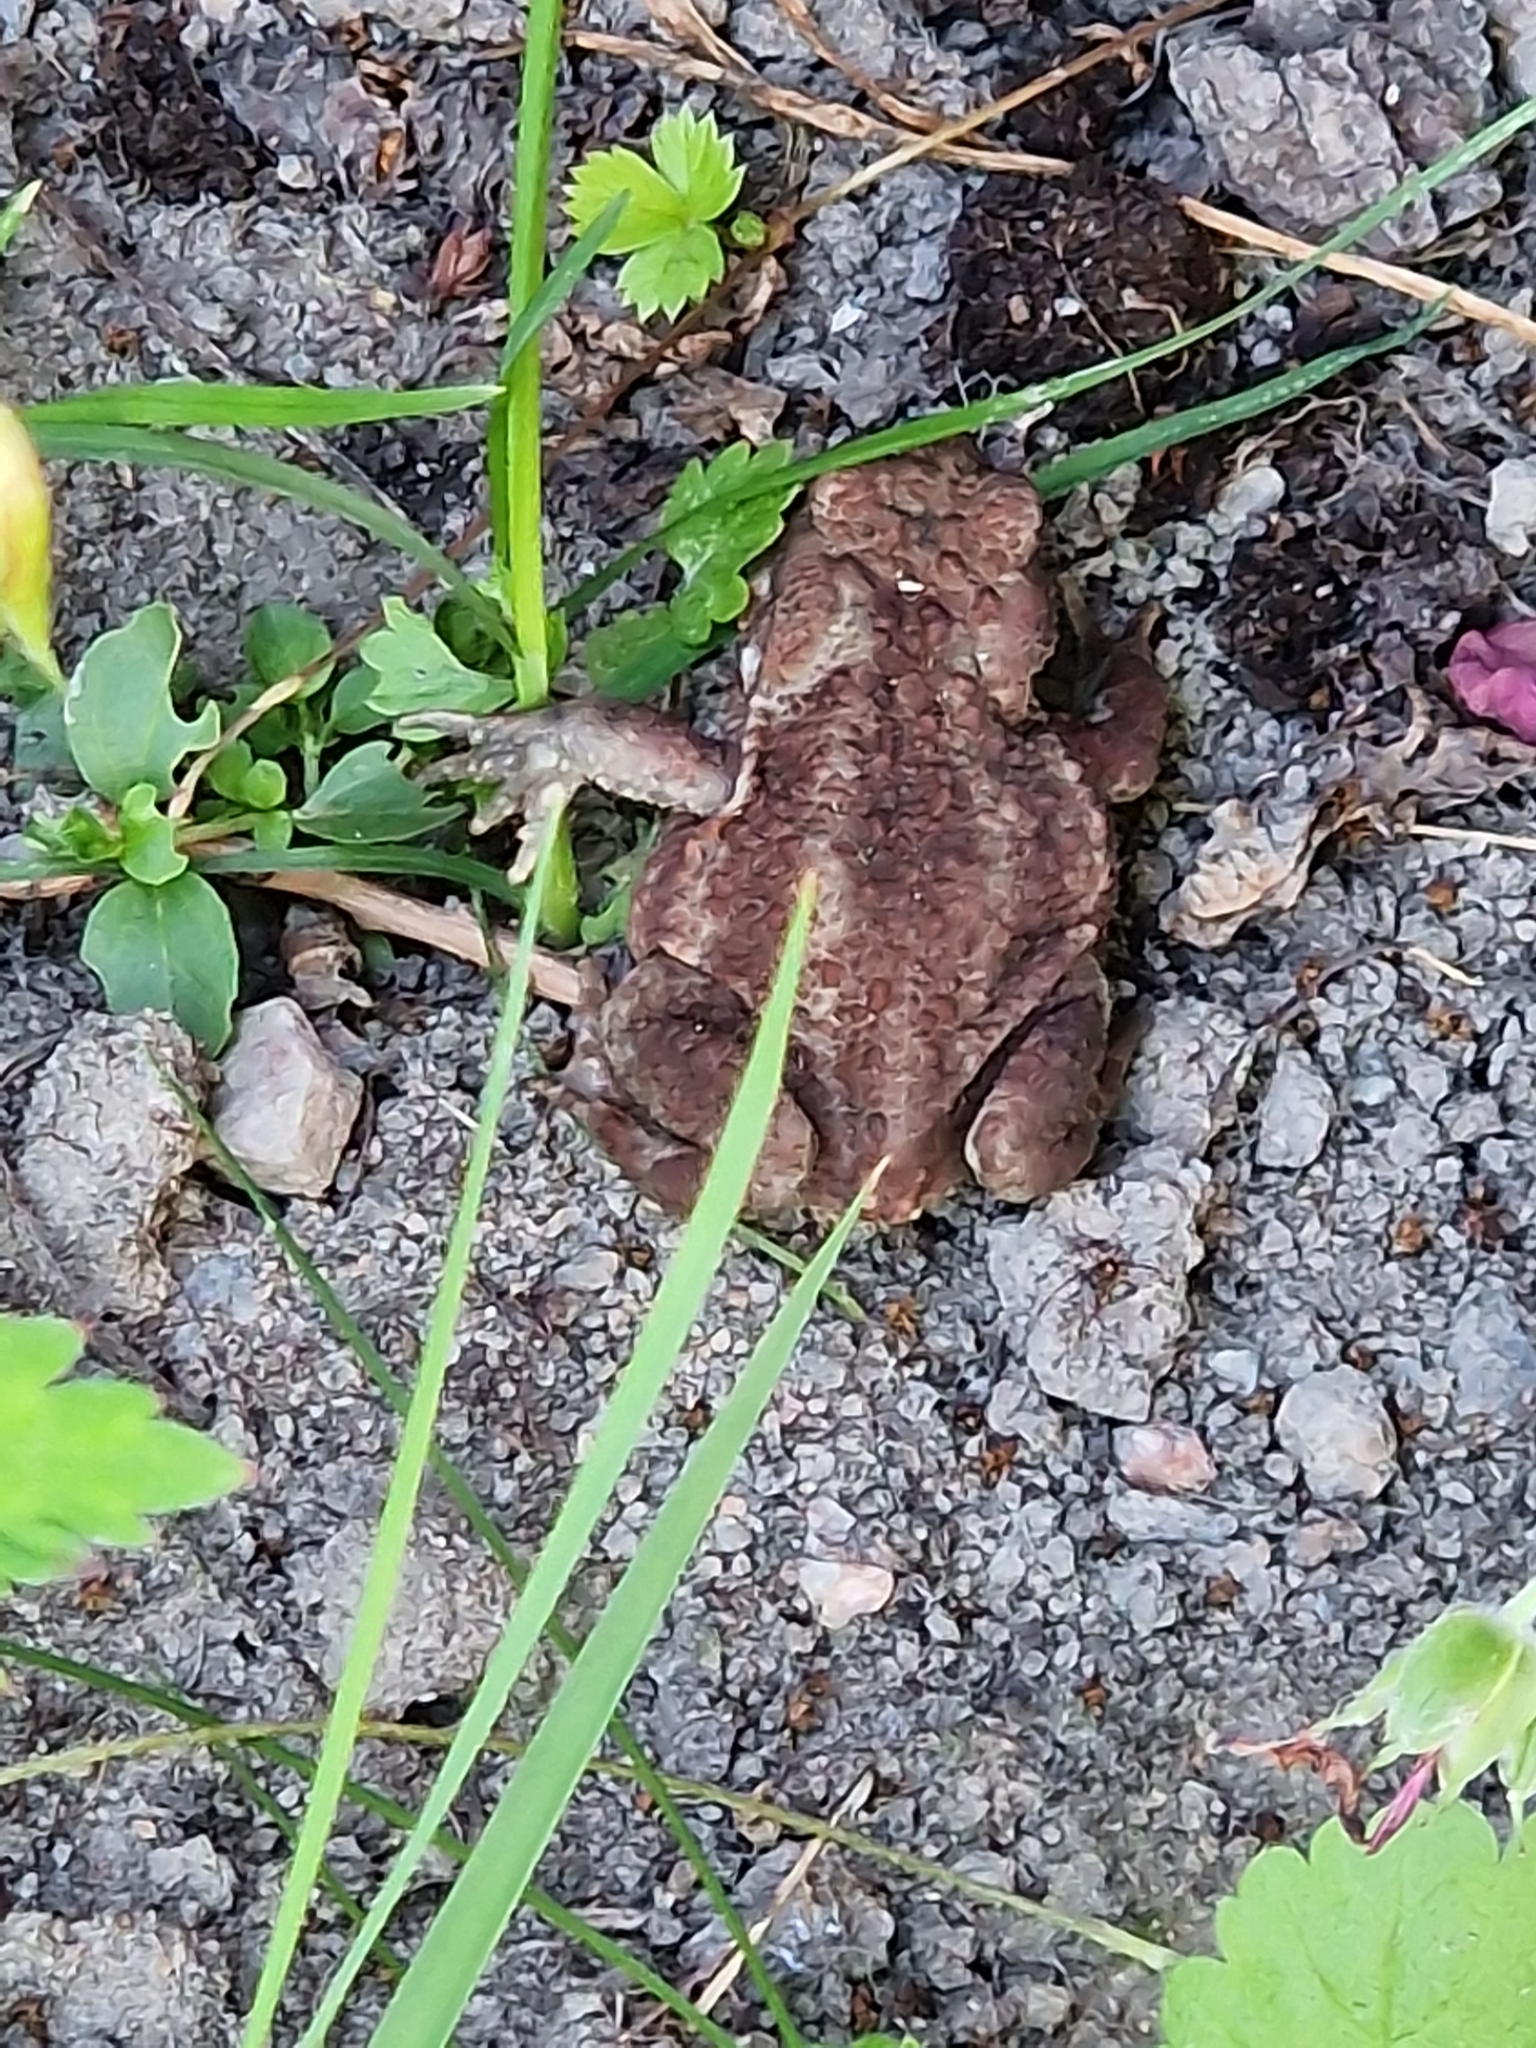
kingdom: Animalia
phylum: Chordata
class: Amphibia
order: Anura
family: Bufonidae
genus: Bufo
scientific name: Bufo bufo
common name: Common toad
